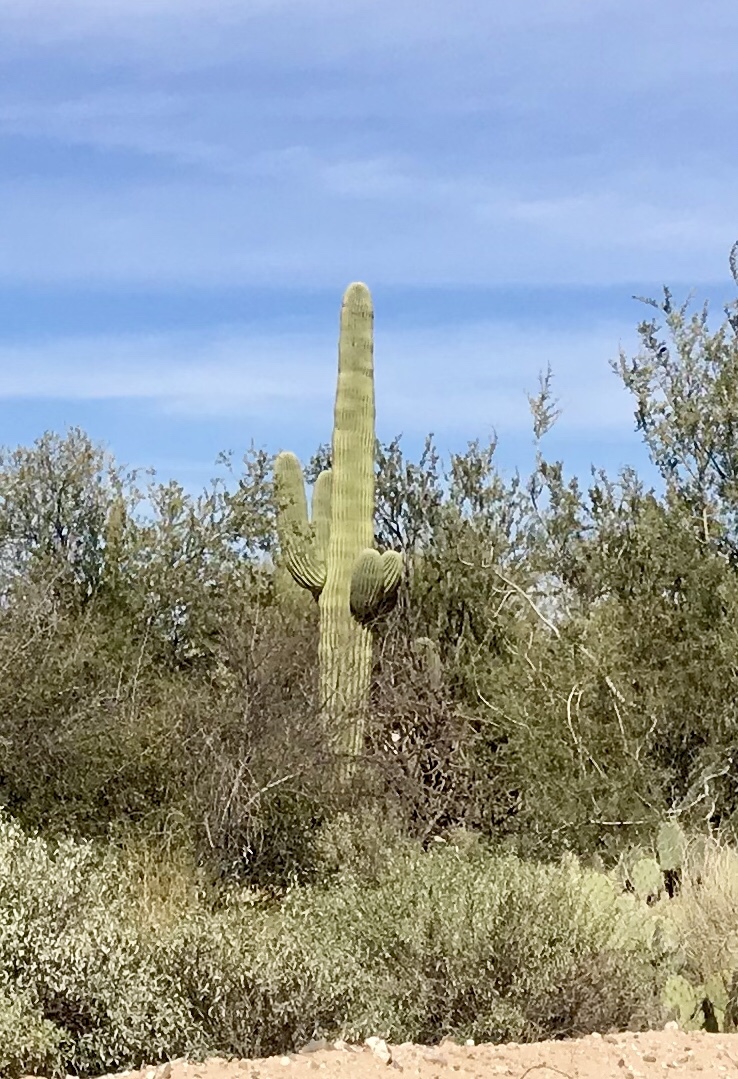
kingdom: Plantae
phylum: Tracheophyta
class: Magnoliopsida
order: Caryophyllales
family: Cactaceae
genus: Carnegiea
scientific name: Carnegiea gigantea
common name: Saguaro
